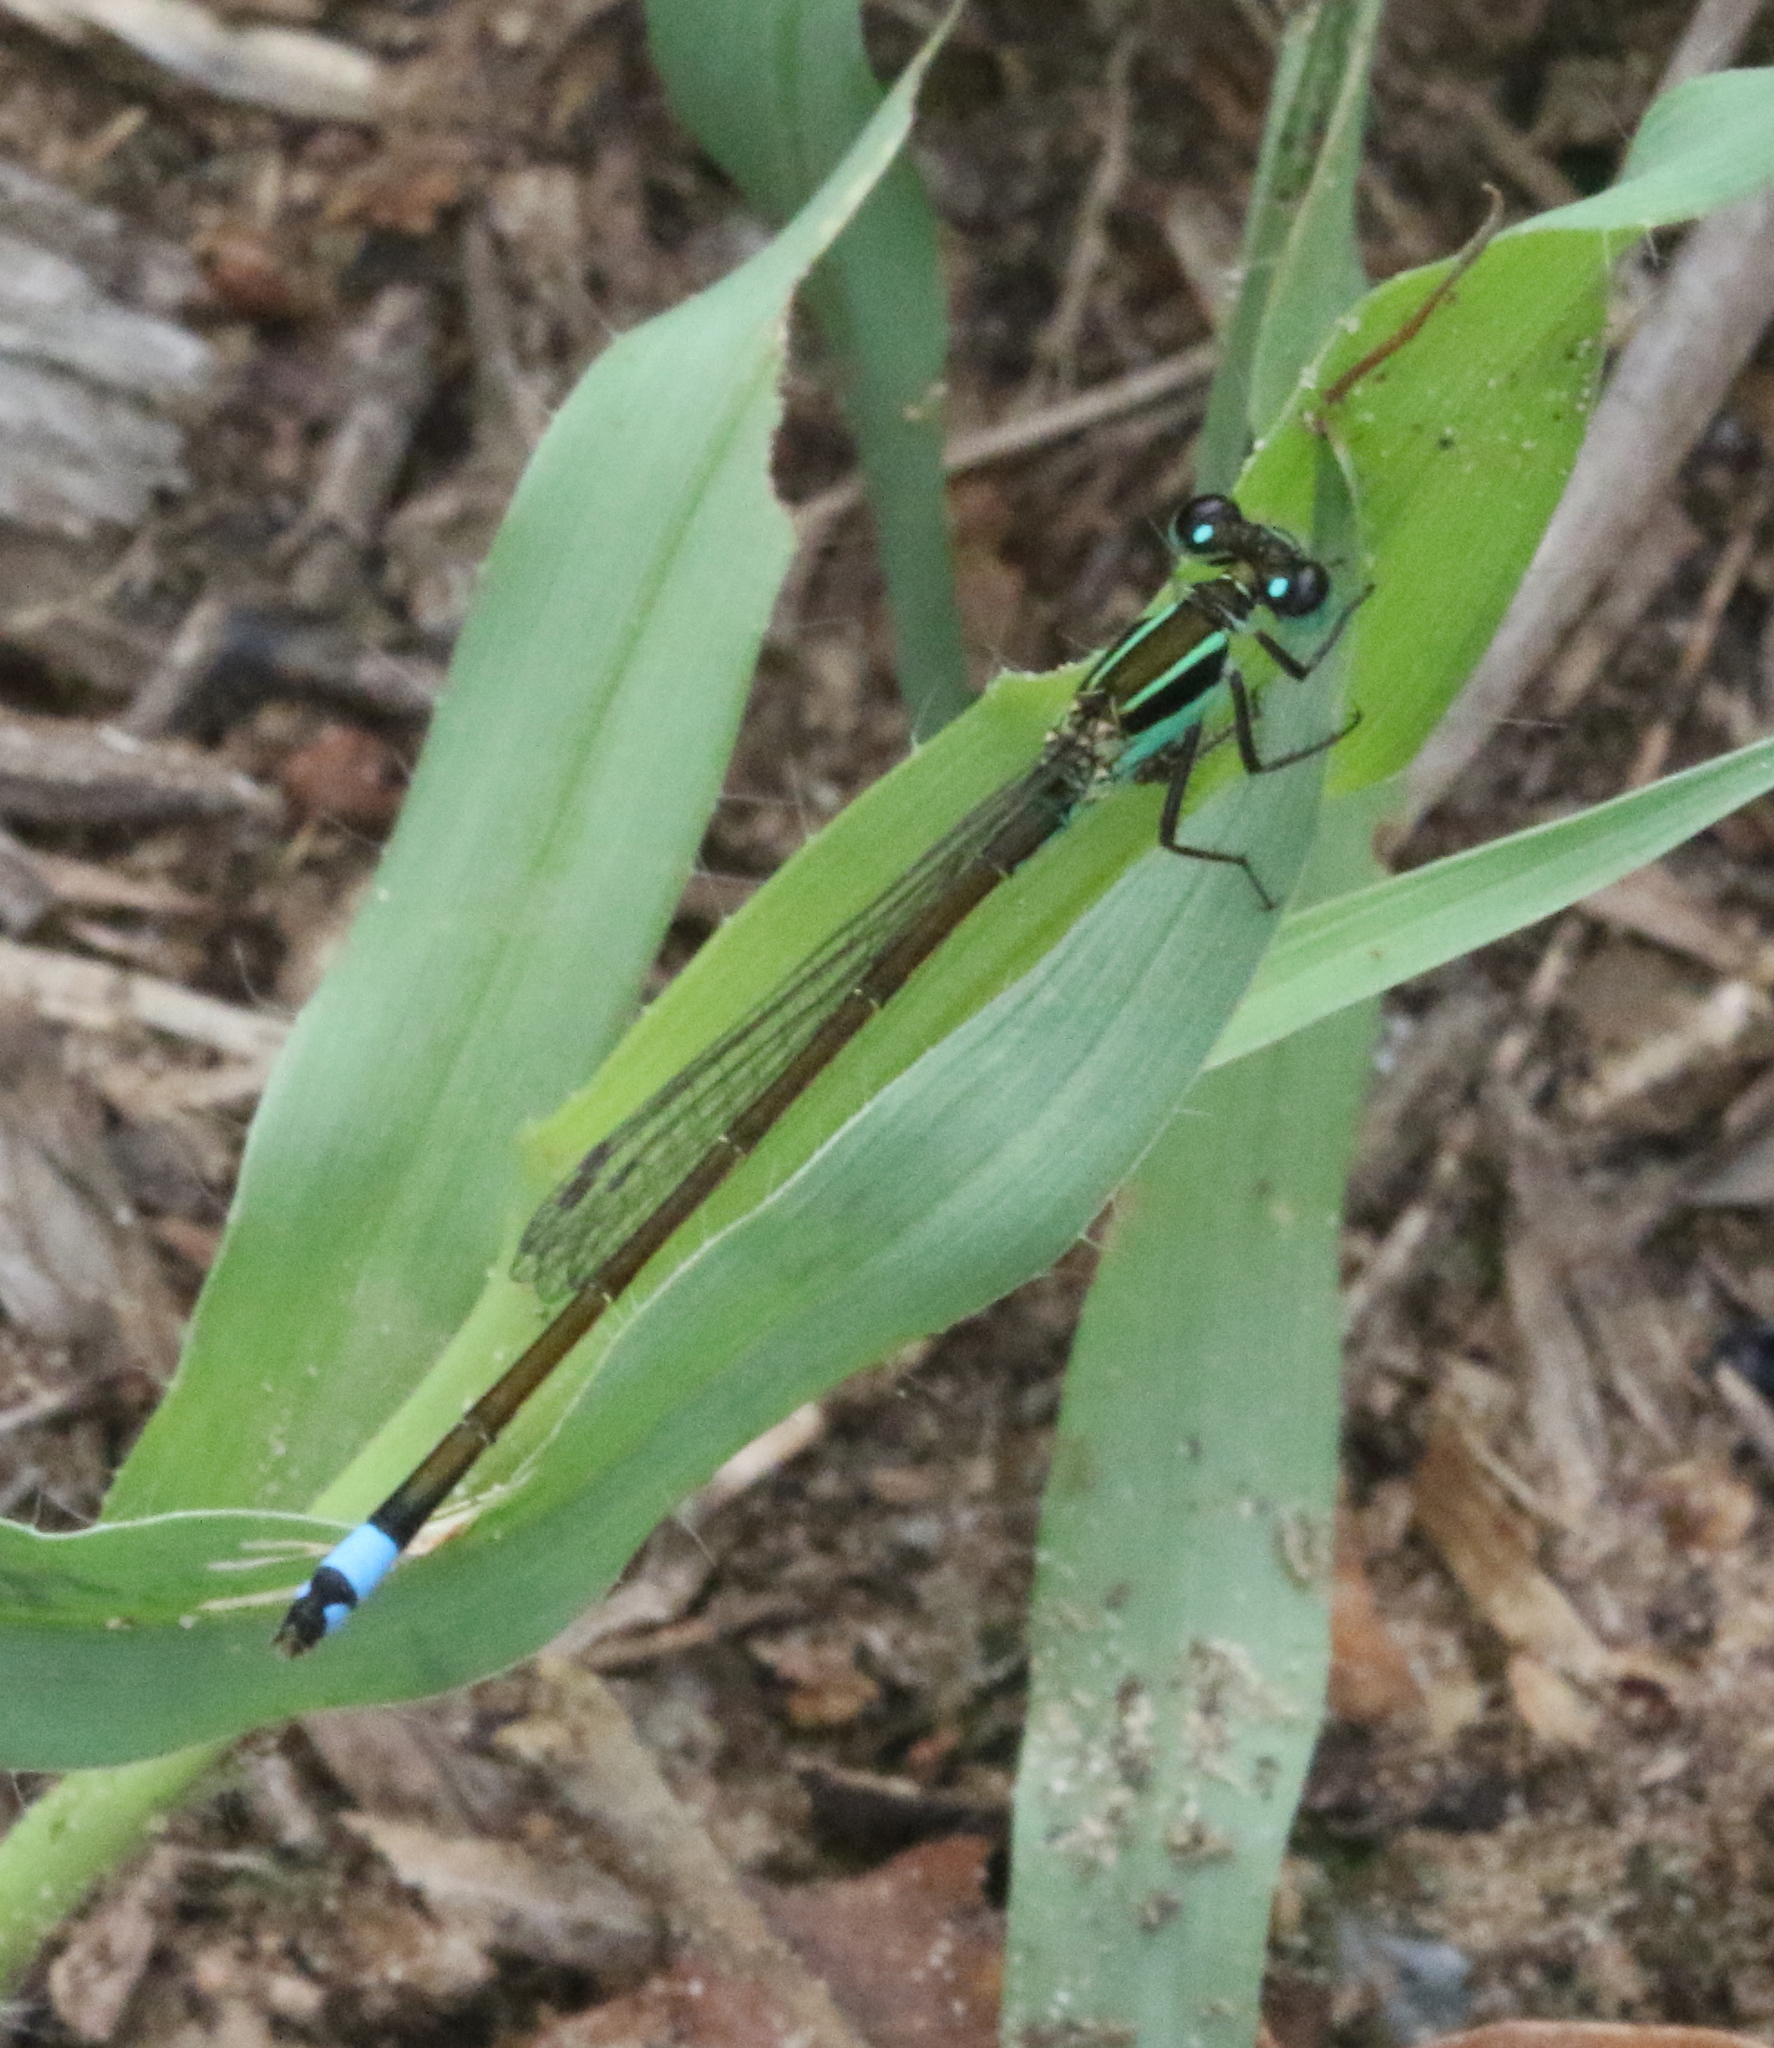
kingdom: Animalia
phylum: Arthropoda
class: Insecta
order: Odonata
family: Coenagrionidae
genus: Ischnura
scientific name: Ischnura ramburii
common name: Rambur's forktail
